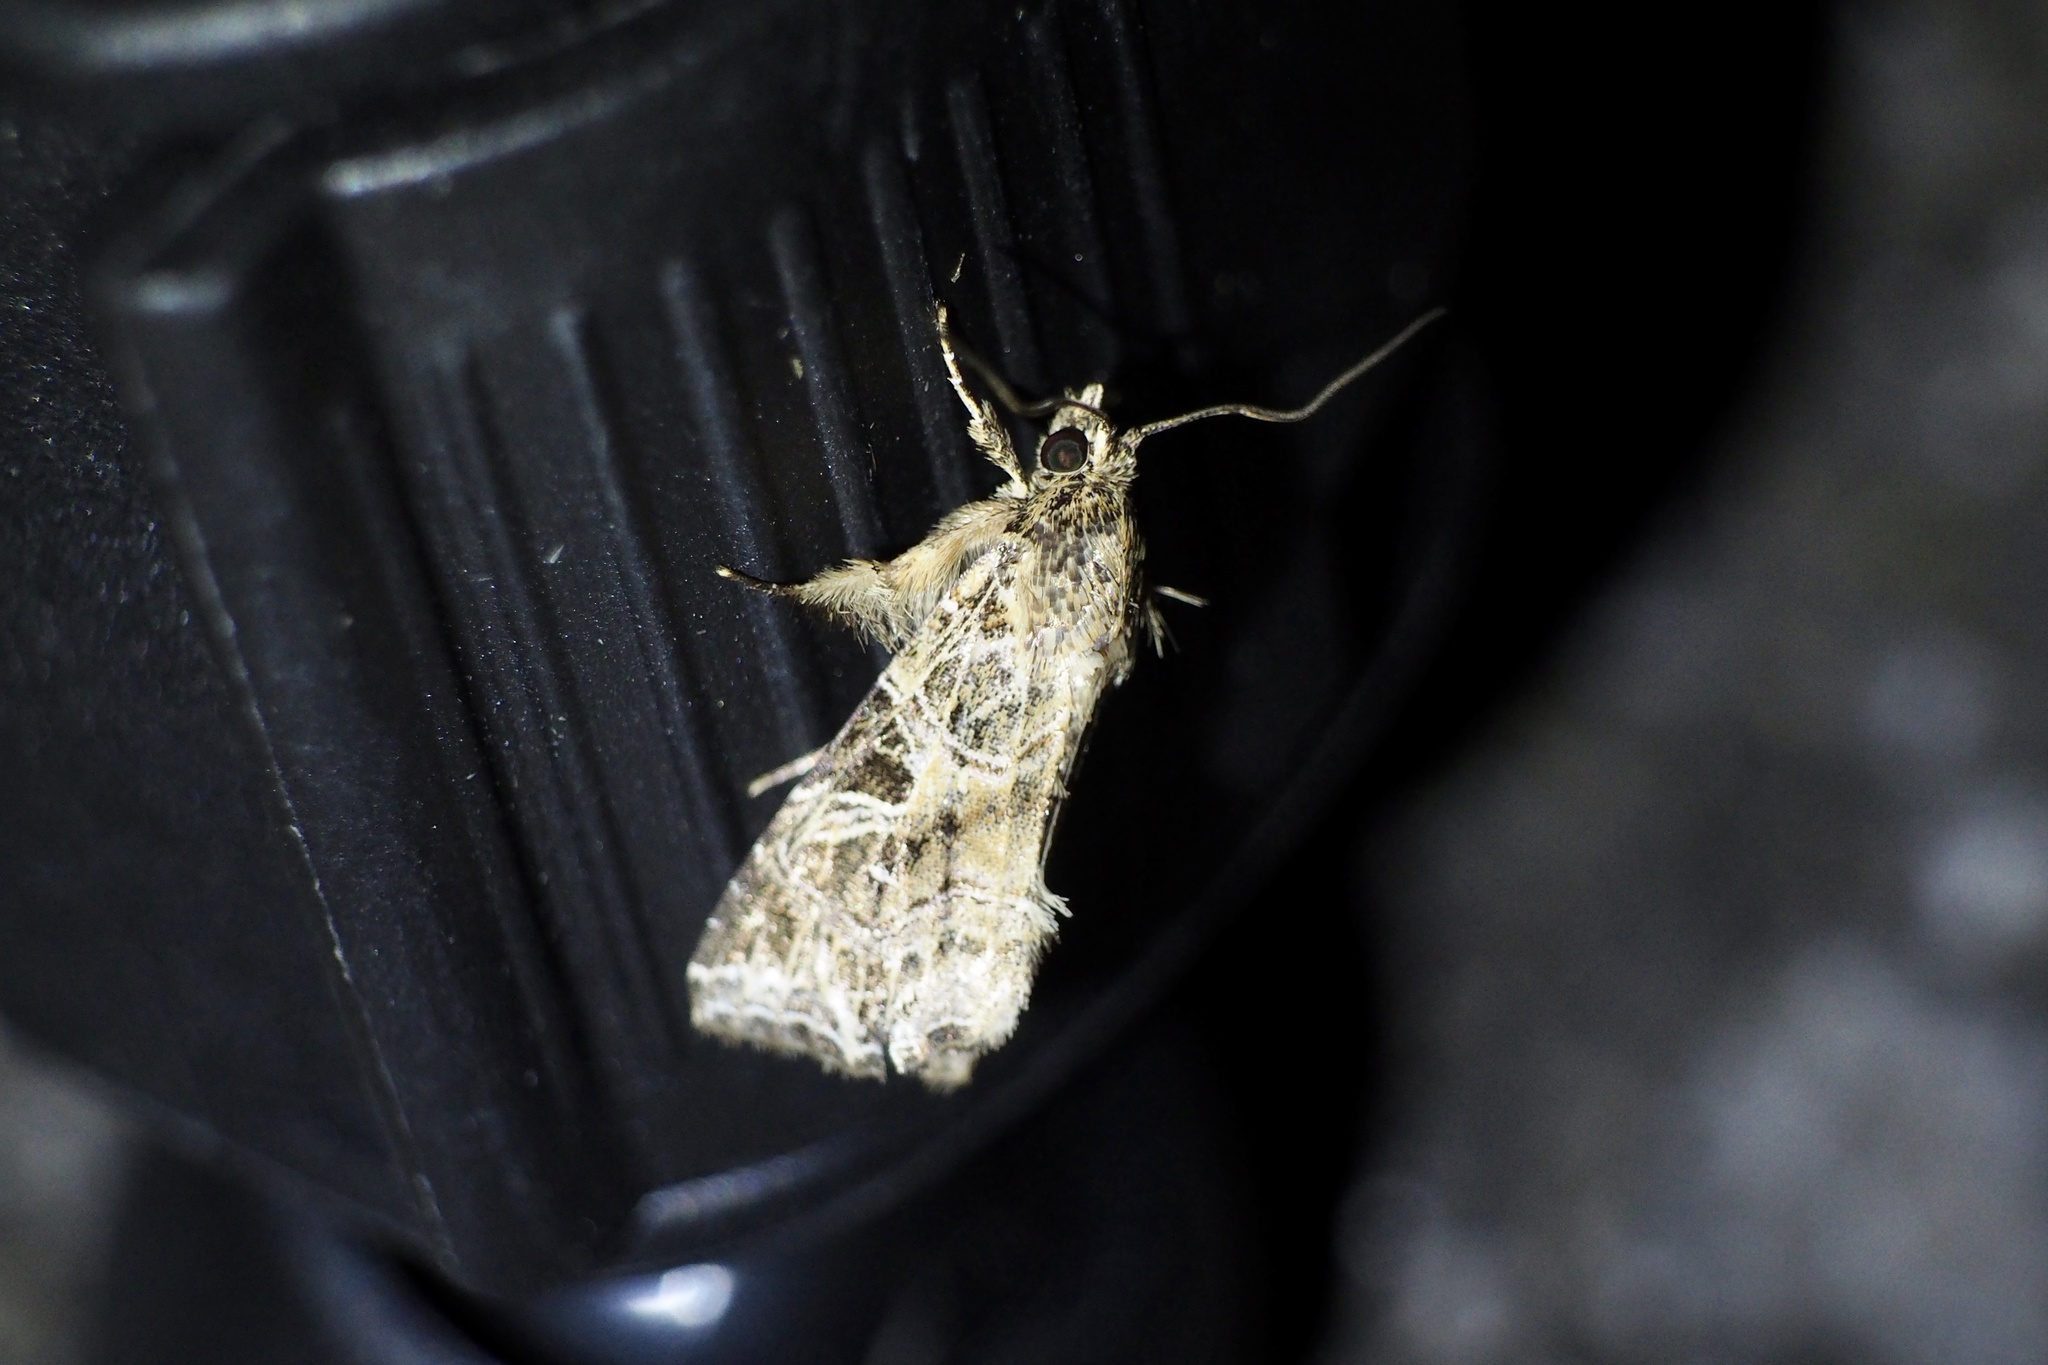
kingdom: Animalia
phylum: Arthropoda
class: Insecta
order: Lepidoptera
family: Noctuidae
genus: Callopistria
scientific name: Callopistria pulchrilinea
